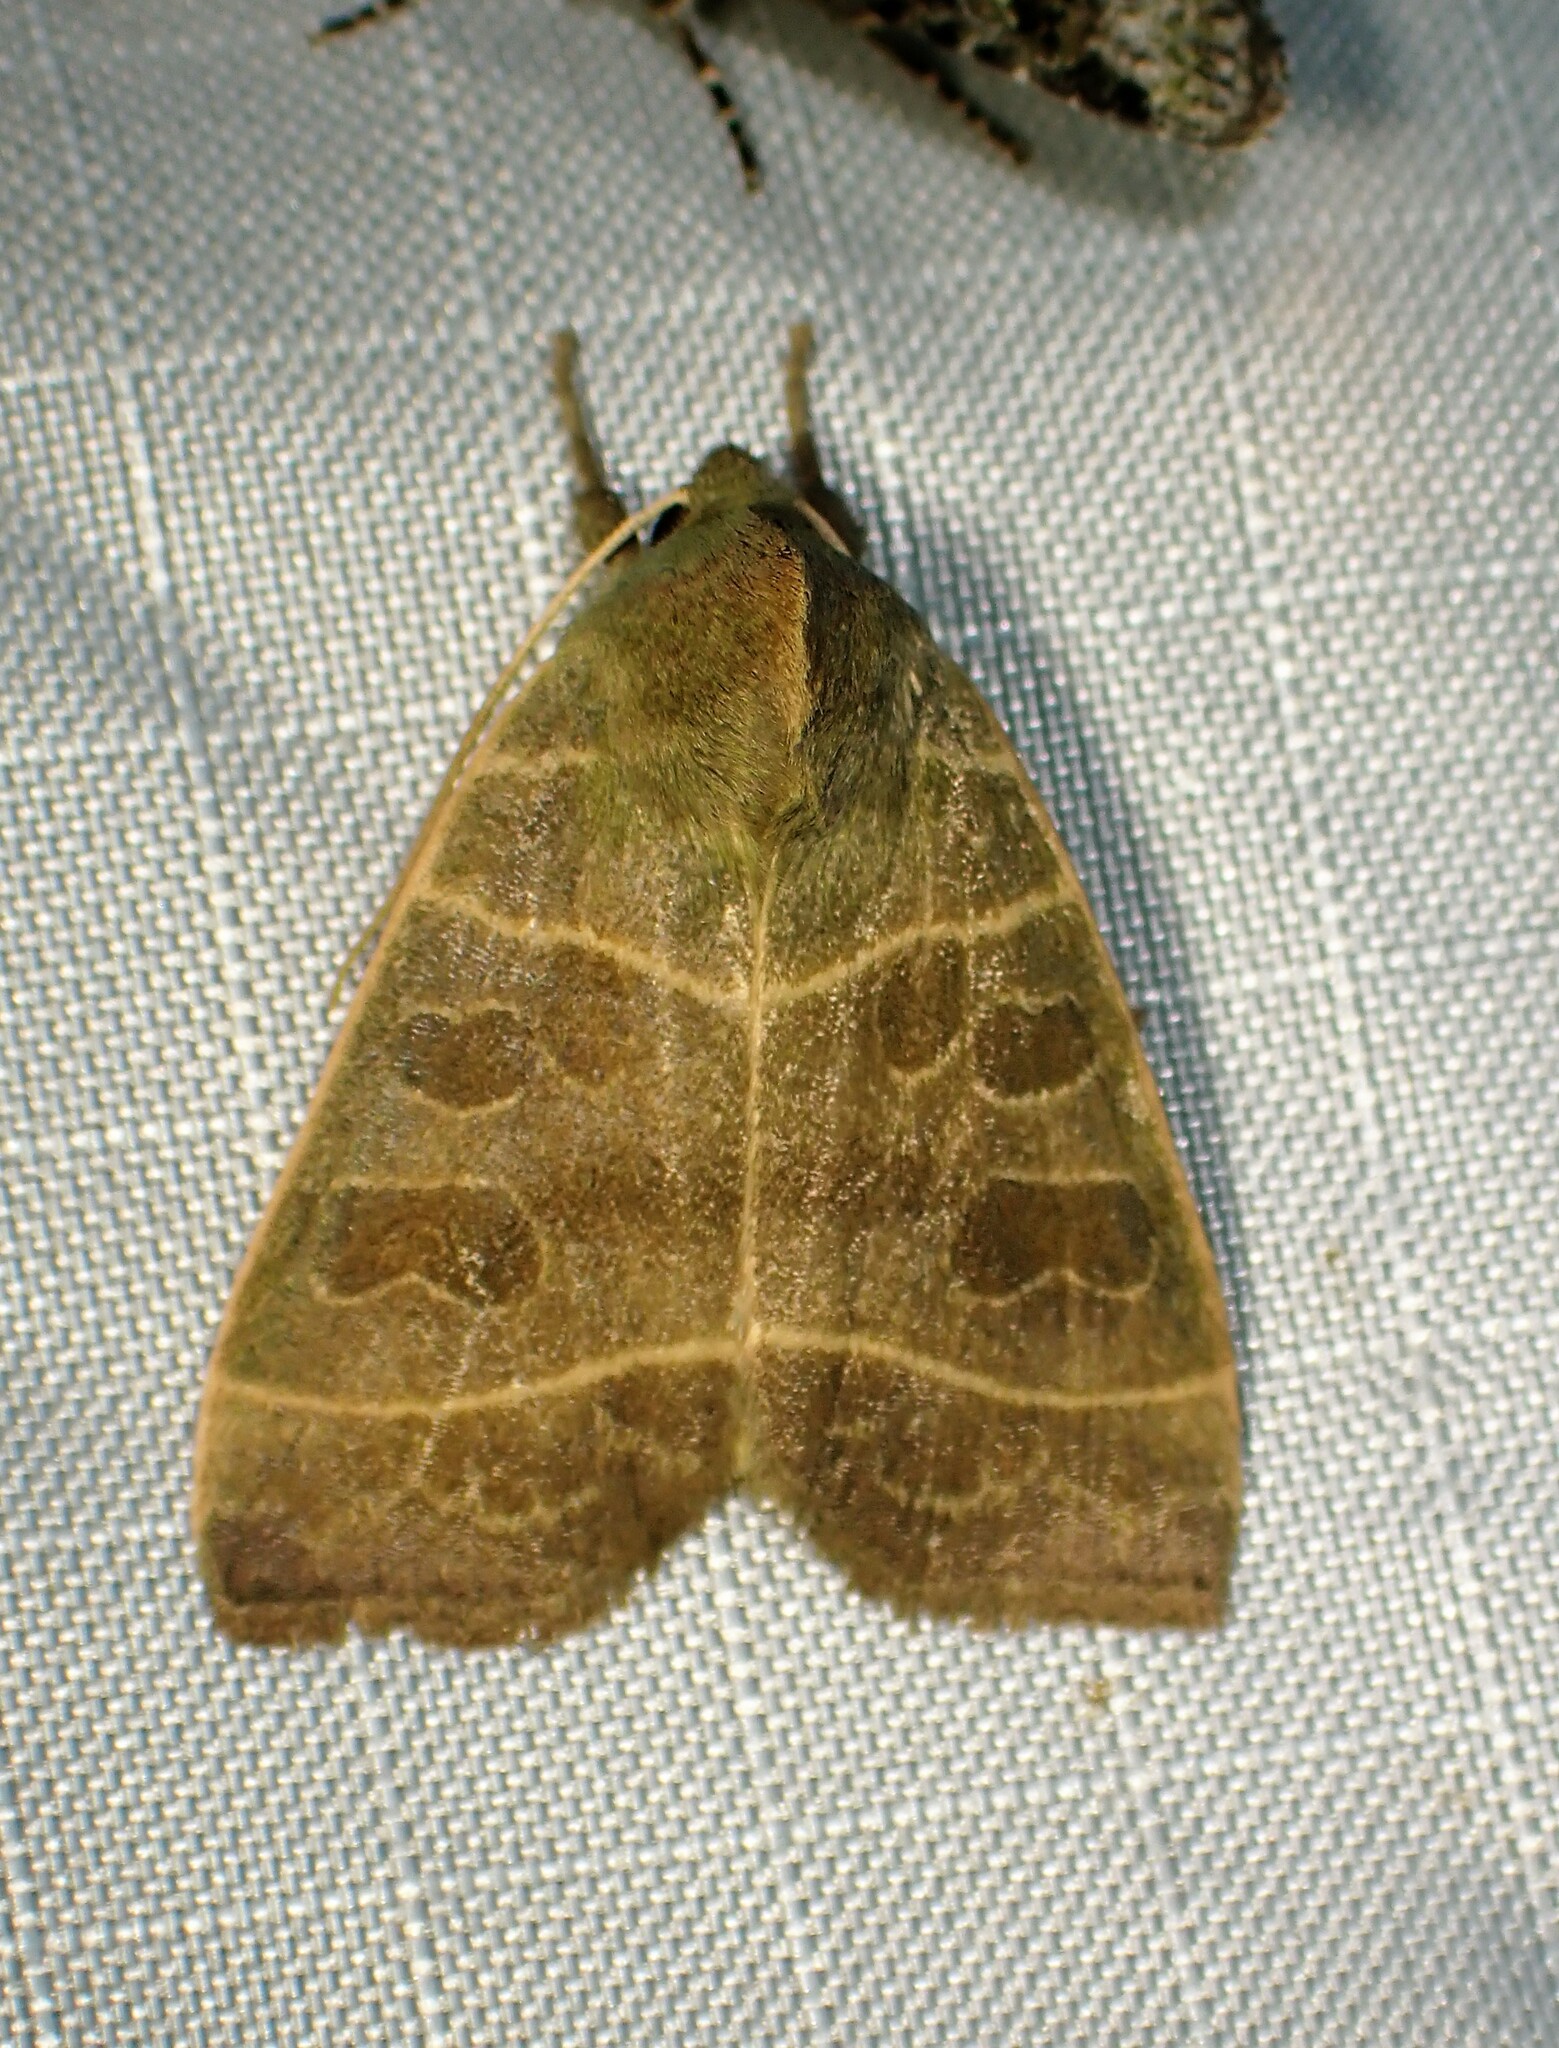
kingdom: Animalia
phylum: Arthropoda
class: Insecta
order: Lepidoptera
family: Noctuidae
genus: Ipimorpha
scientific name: Ipimorpha pleonectusa
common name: Even-lined sallow
